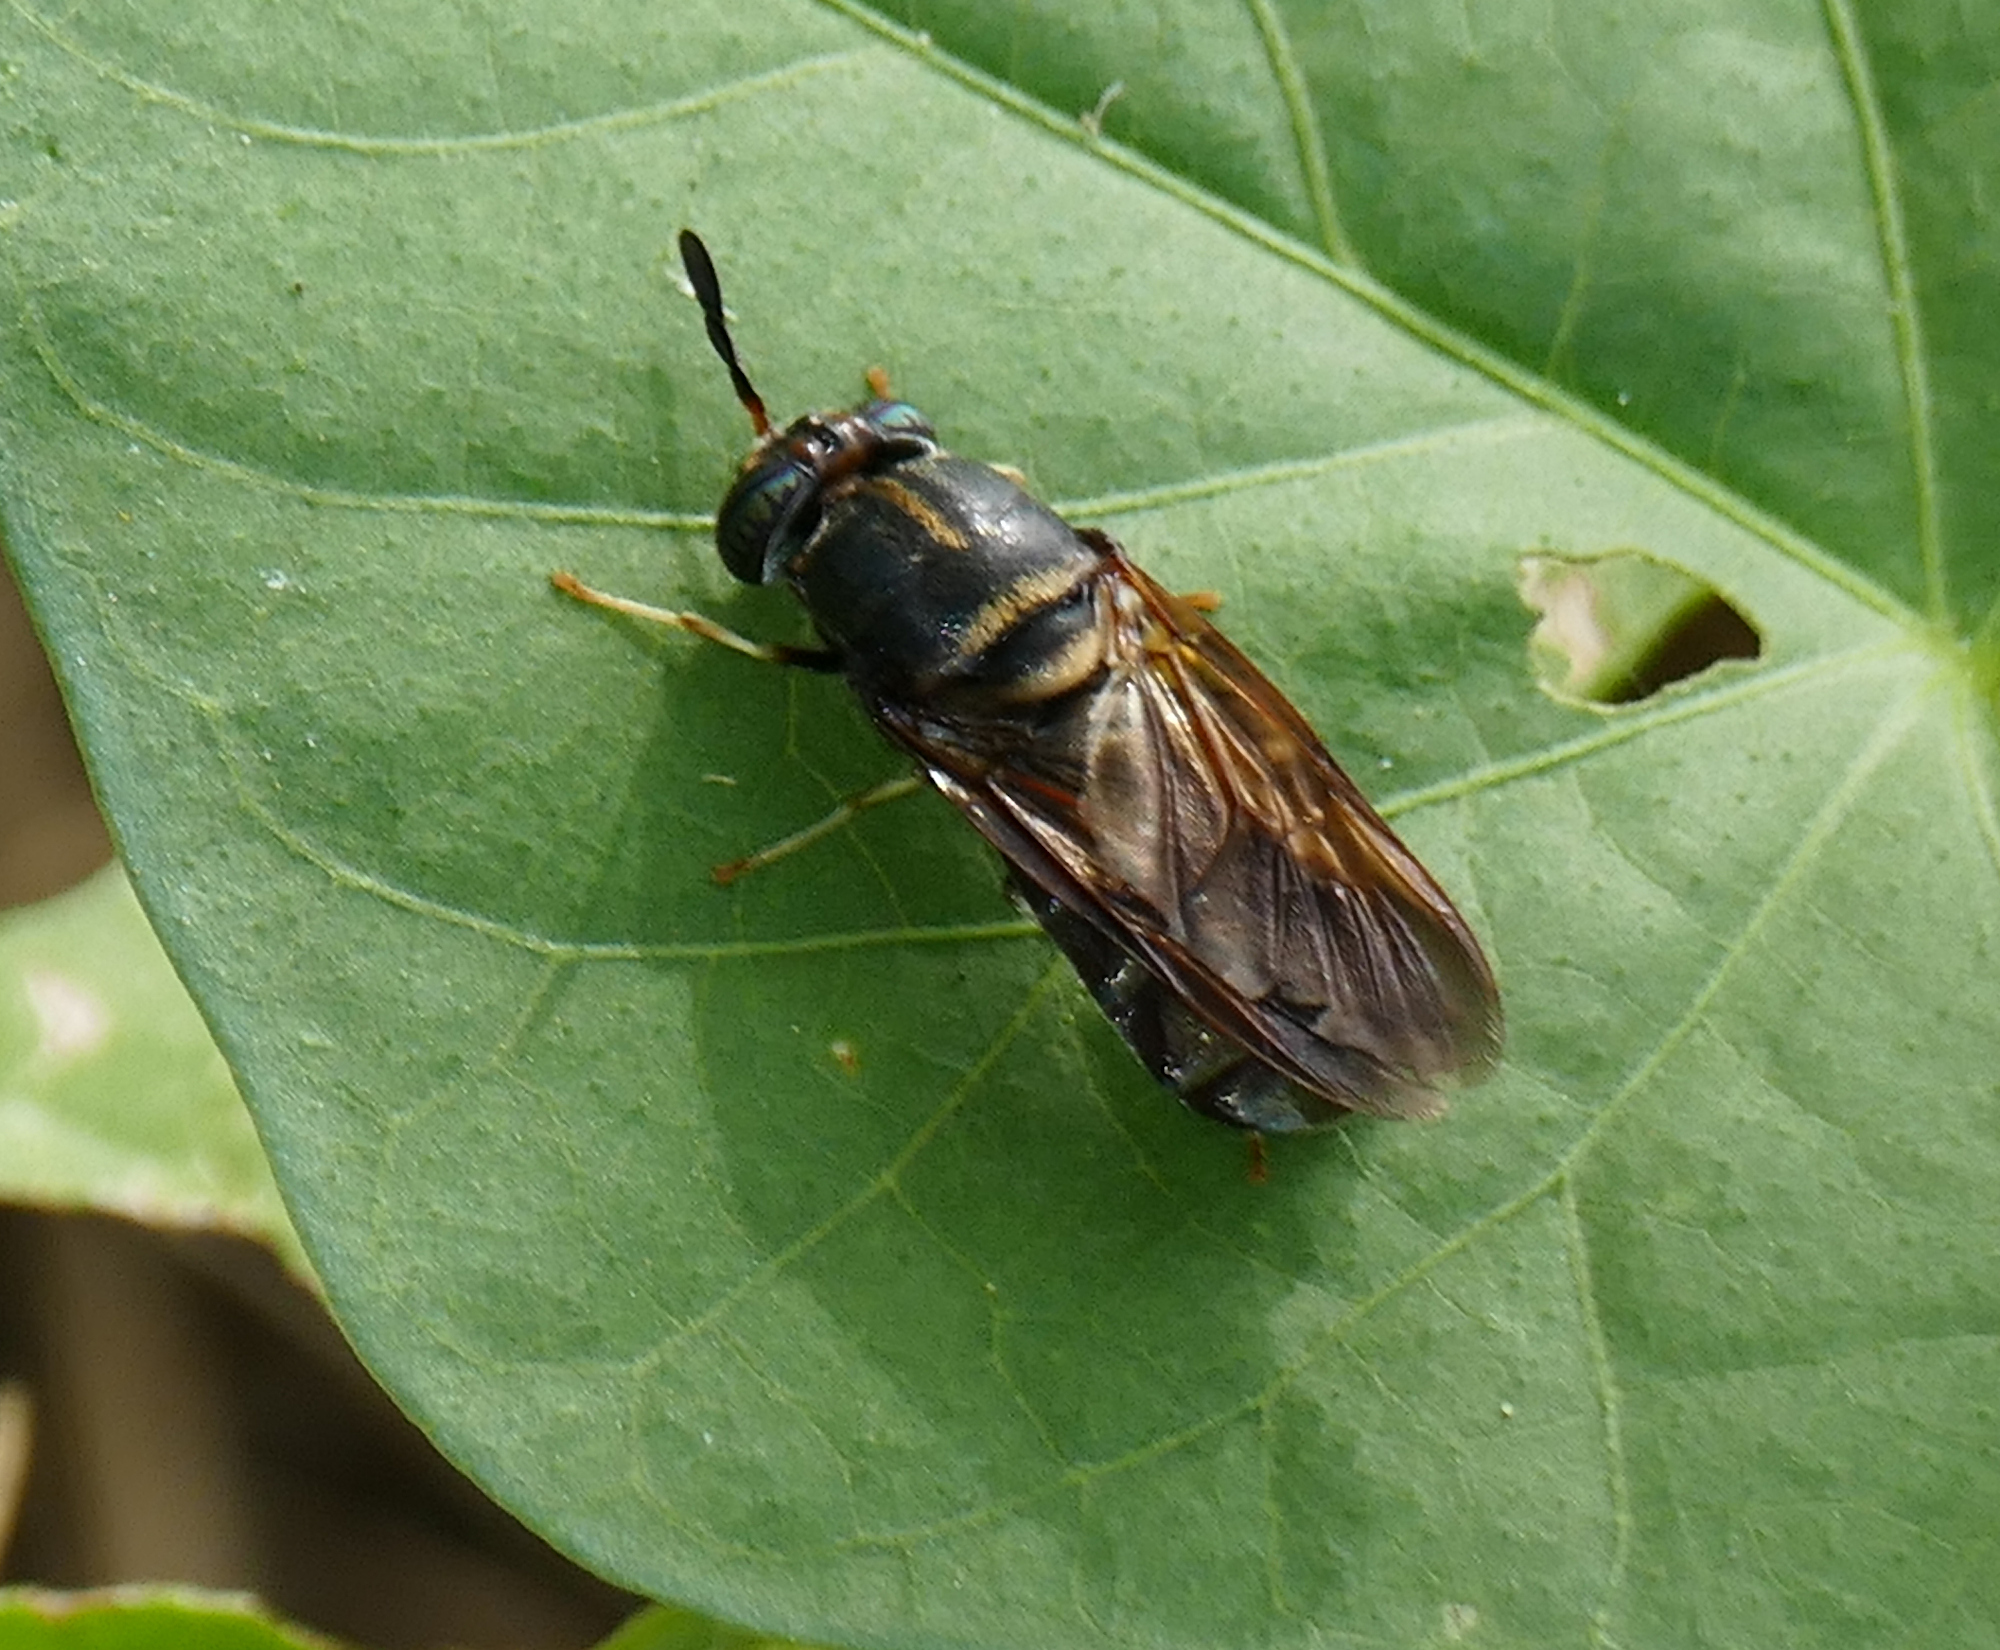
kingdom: Animalia
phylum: Arthropoda
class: Insecta
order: Diptera
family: Stratiomyidae
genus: Hermetia
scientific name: Hermetia subpellucida
